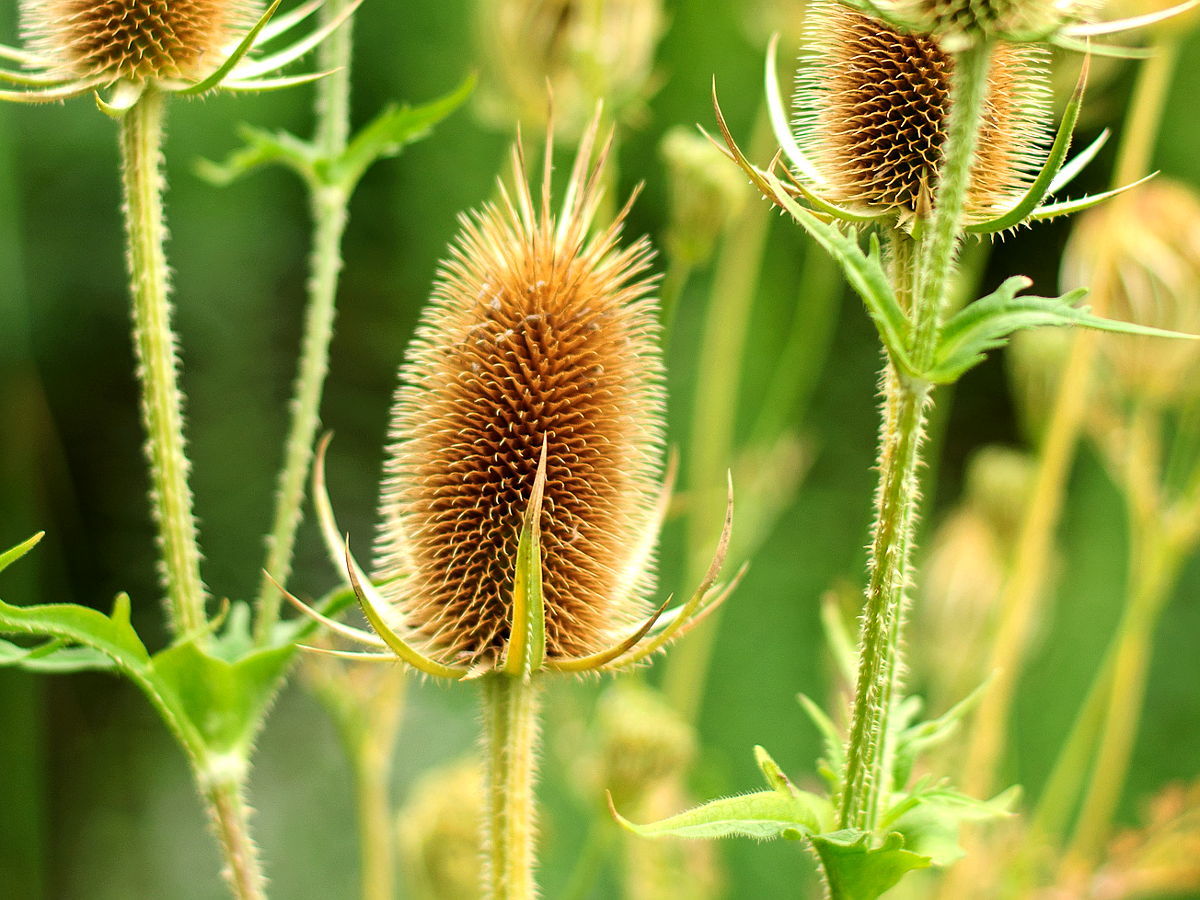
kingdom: Plantae
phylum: Tracheophyta
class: Magnoliopsida
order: Dipsacales
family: Caprifoliaceae
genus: Dipsacus
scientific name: Dipsacus laciniatus
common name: Cut-leaved teasel
